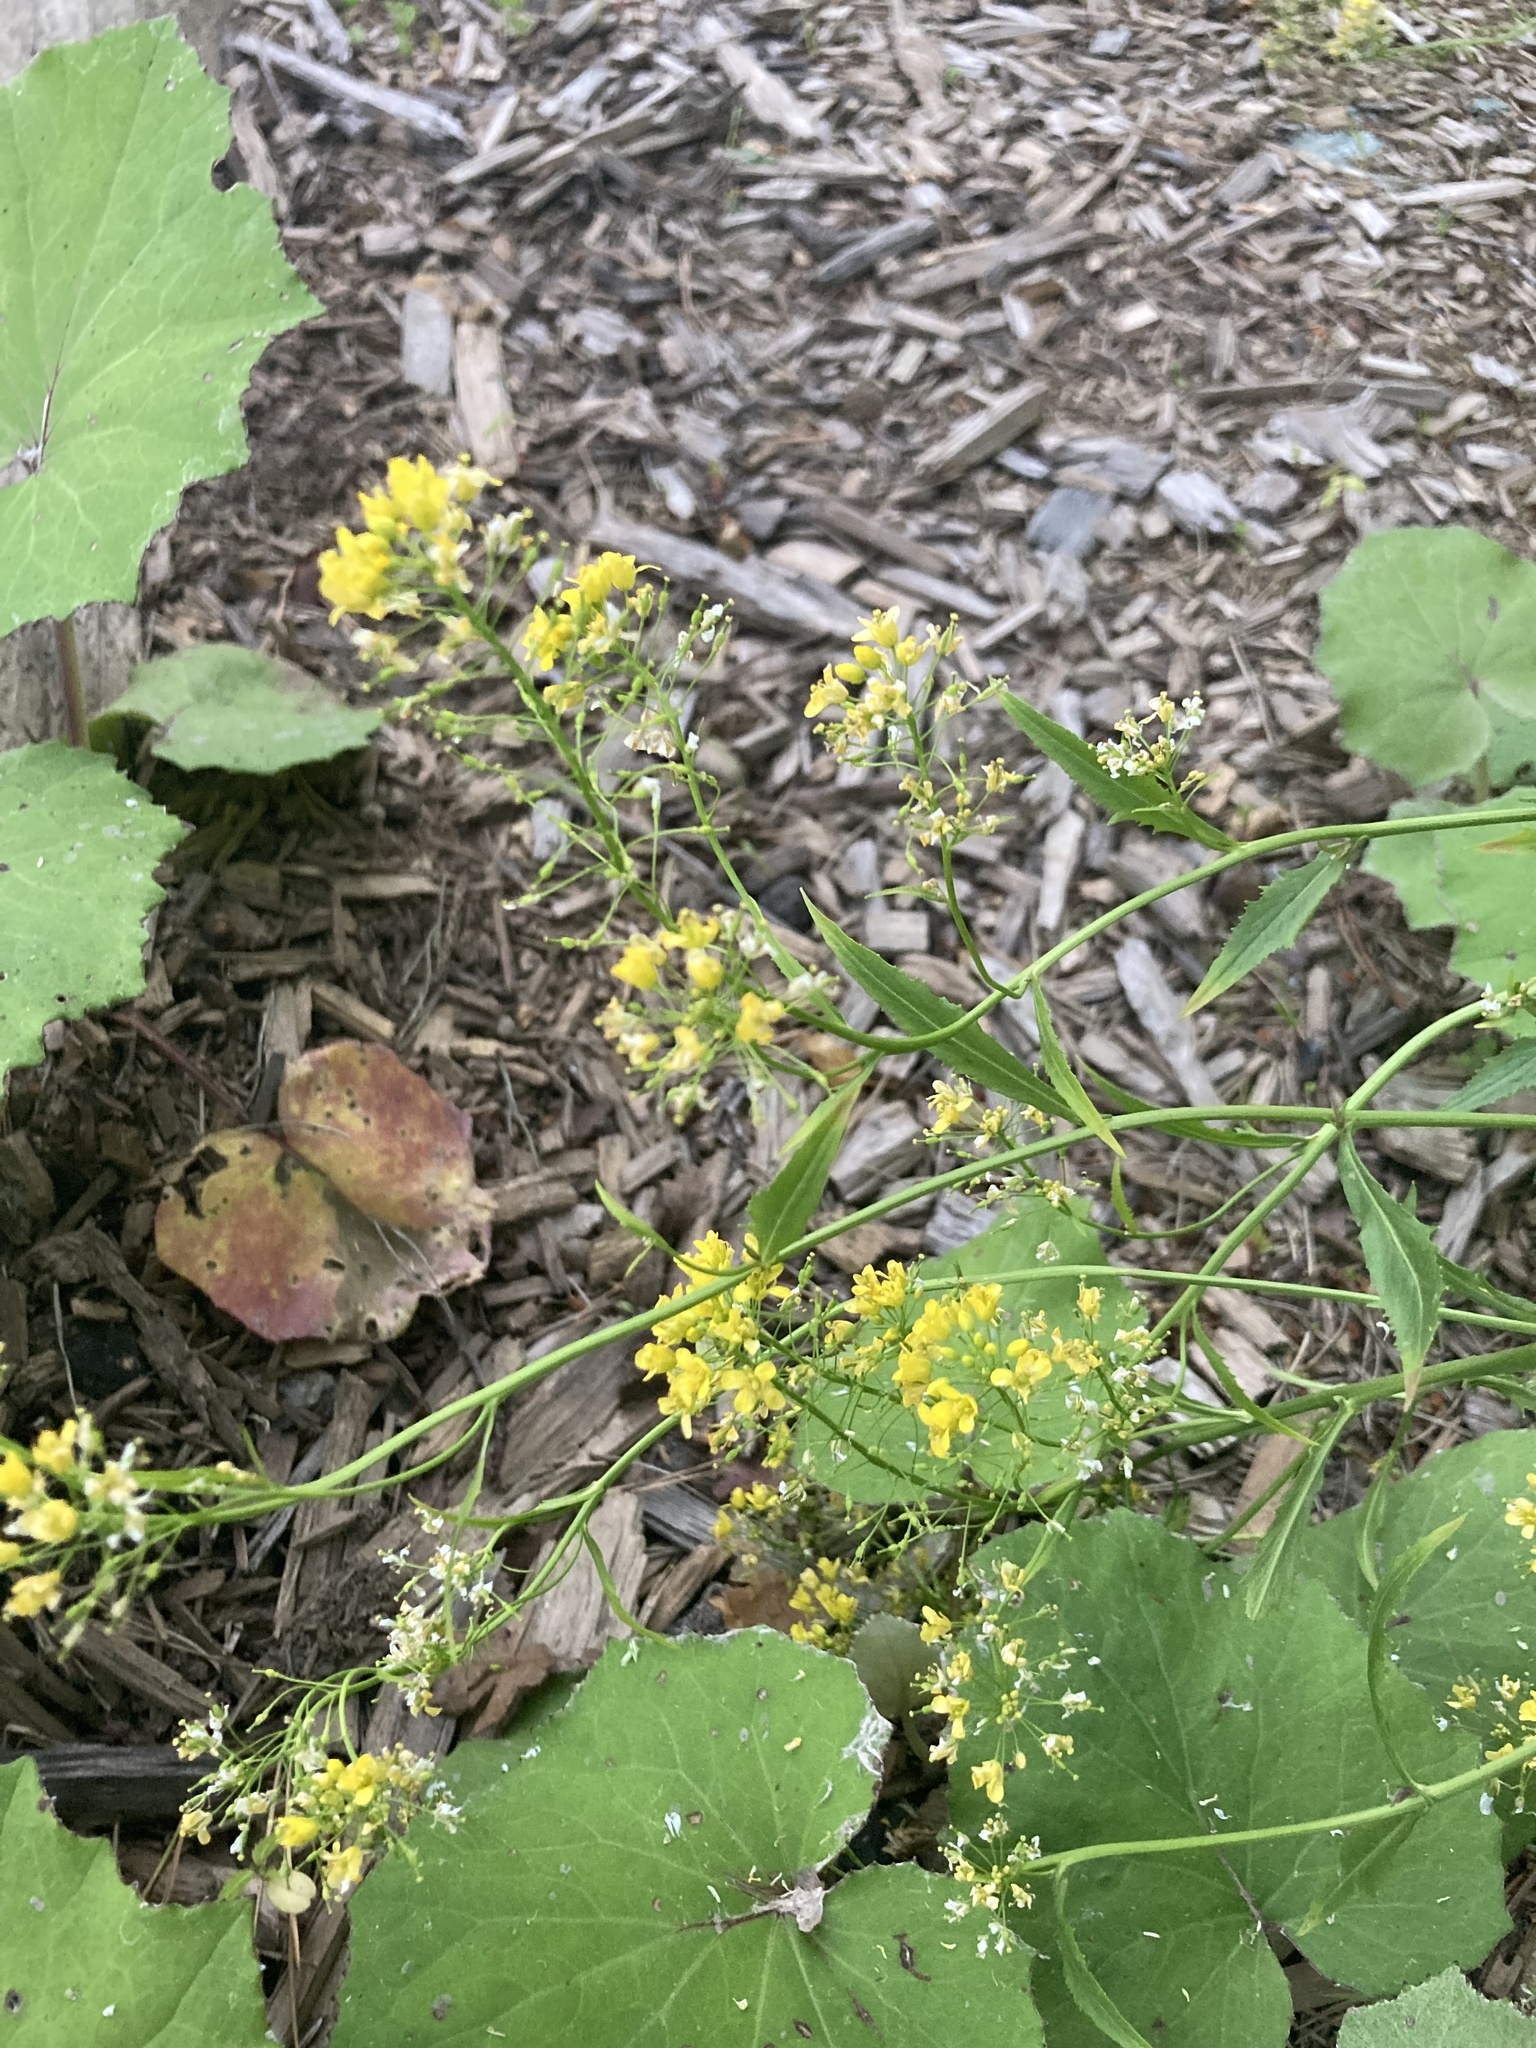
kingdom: Plantae
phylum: Tracheophyta
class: Magnoliopsida
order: Brassicales
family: Brassicaceae
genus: Rorippa
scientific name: Rorippa austriaca
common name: Austrian yellow-cress
